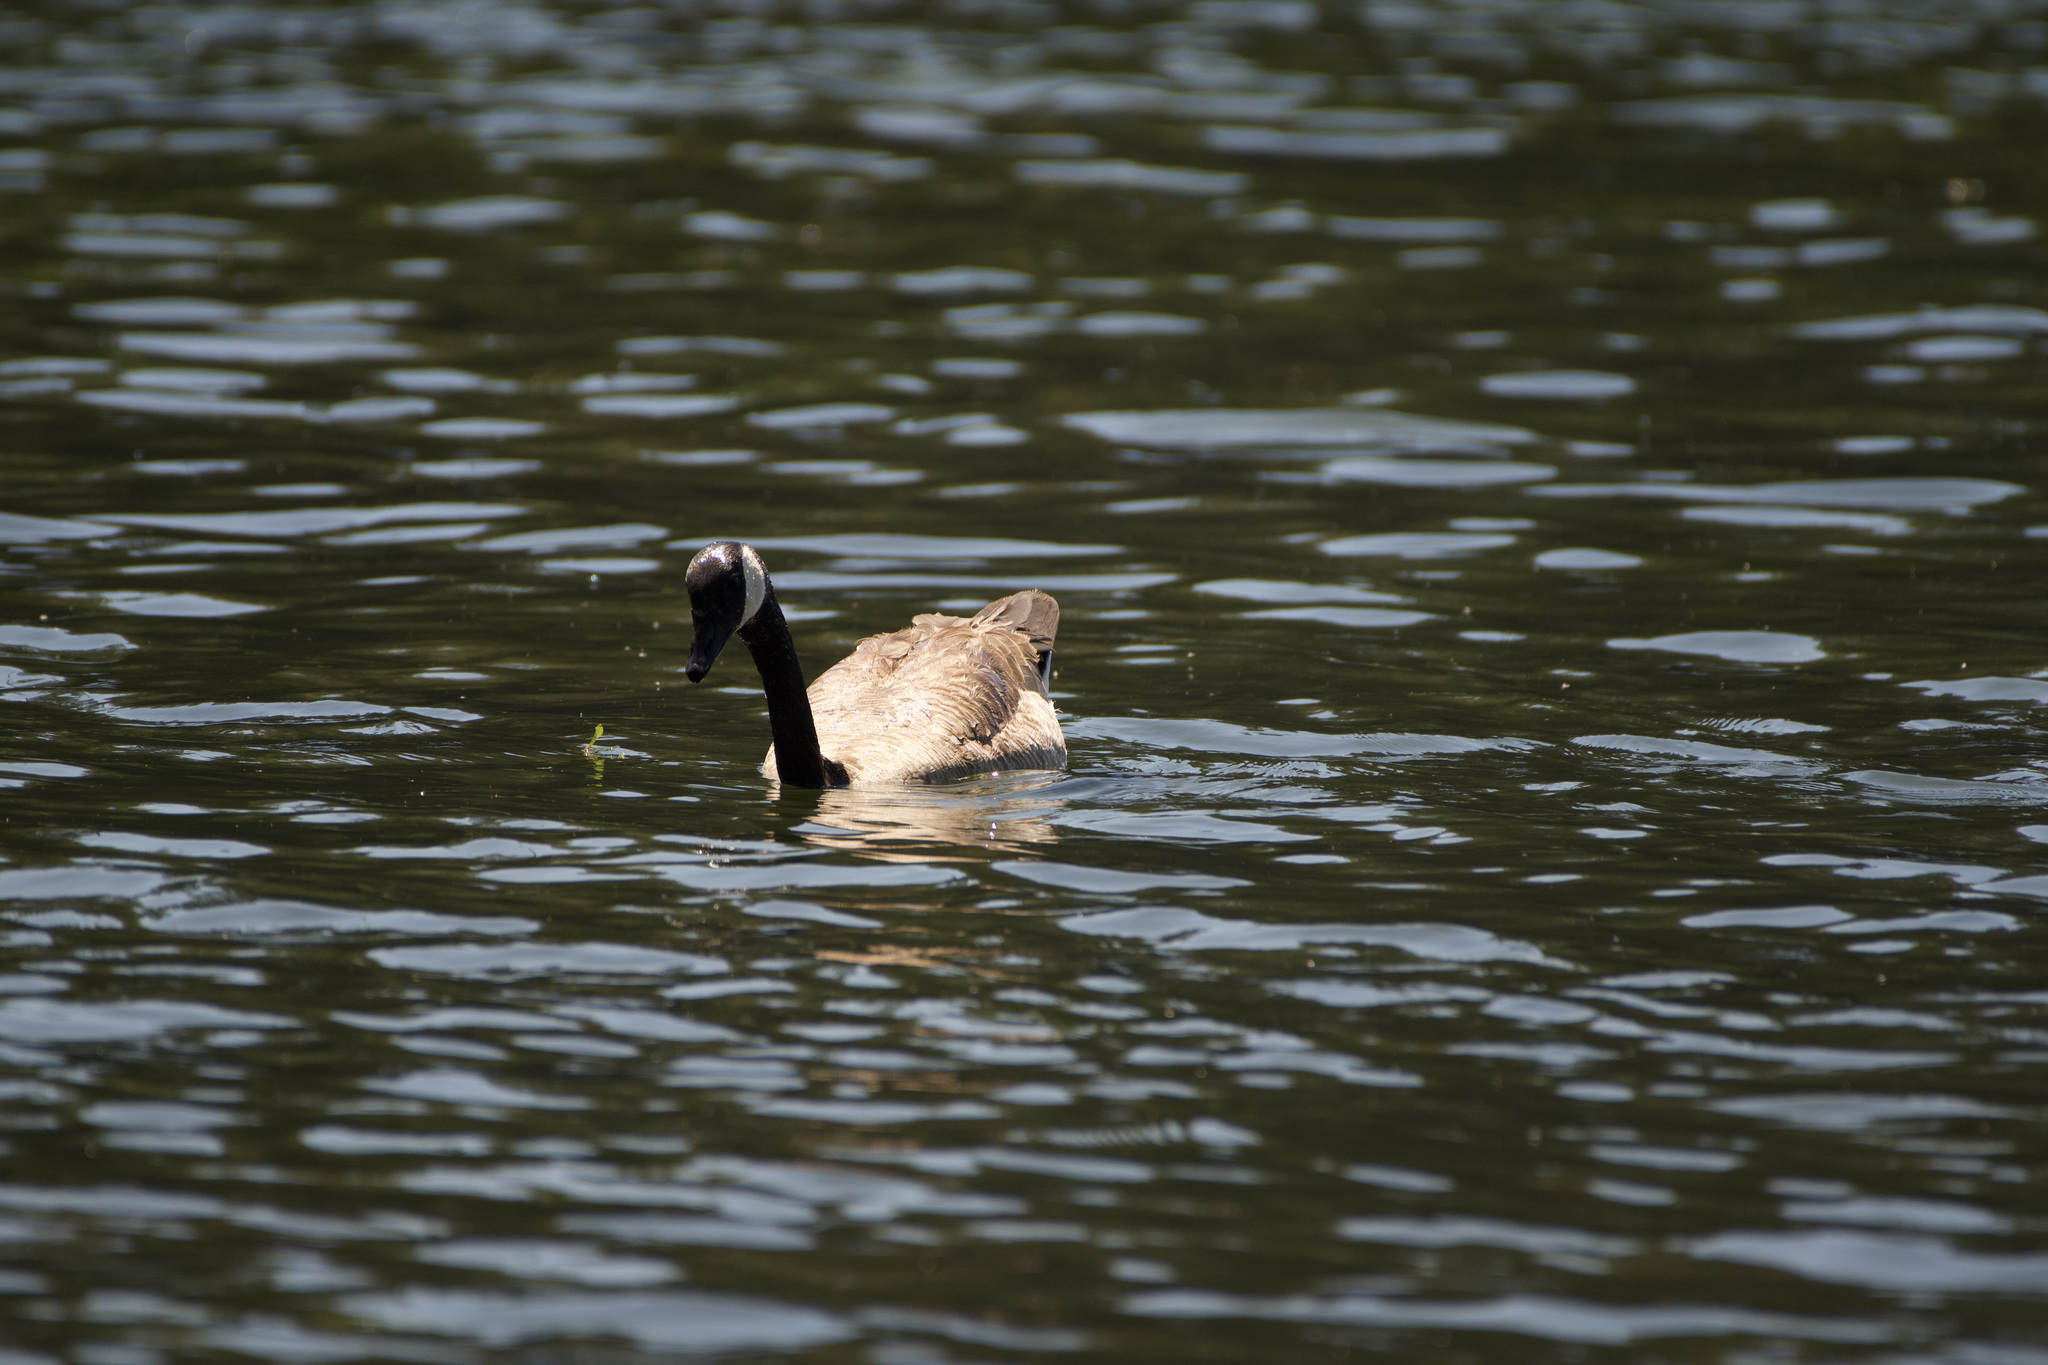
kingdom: Animalia
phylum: Chordata
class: Aves
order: Anseriformes
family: Anatidae
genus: Branta
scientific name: Branta canadensis
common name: Canada goose
